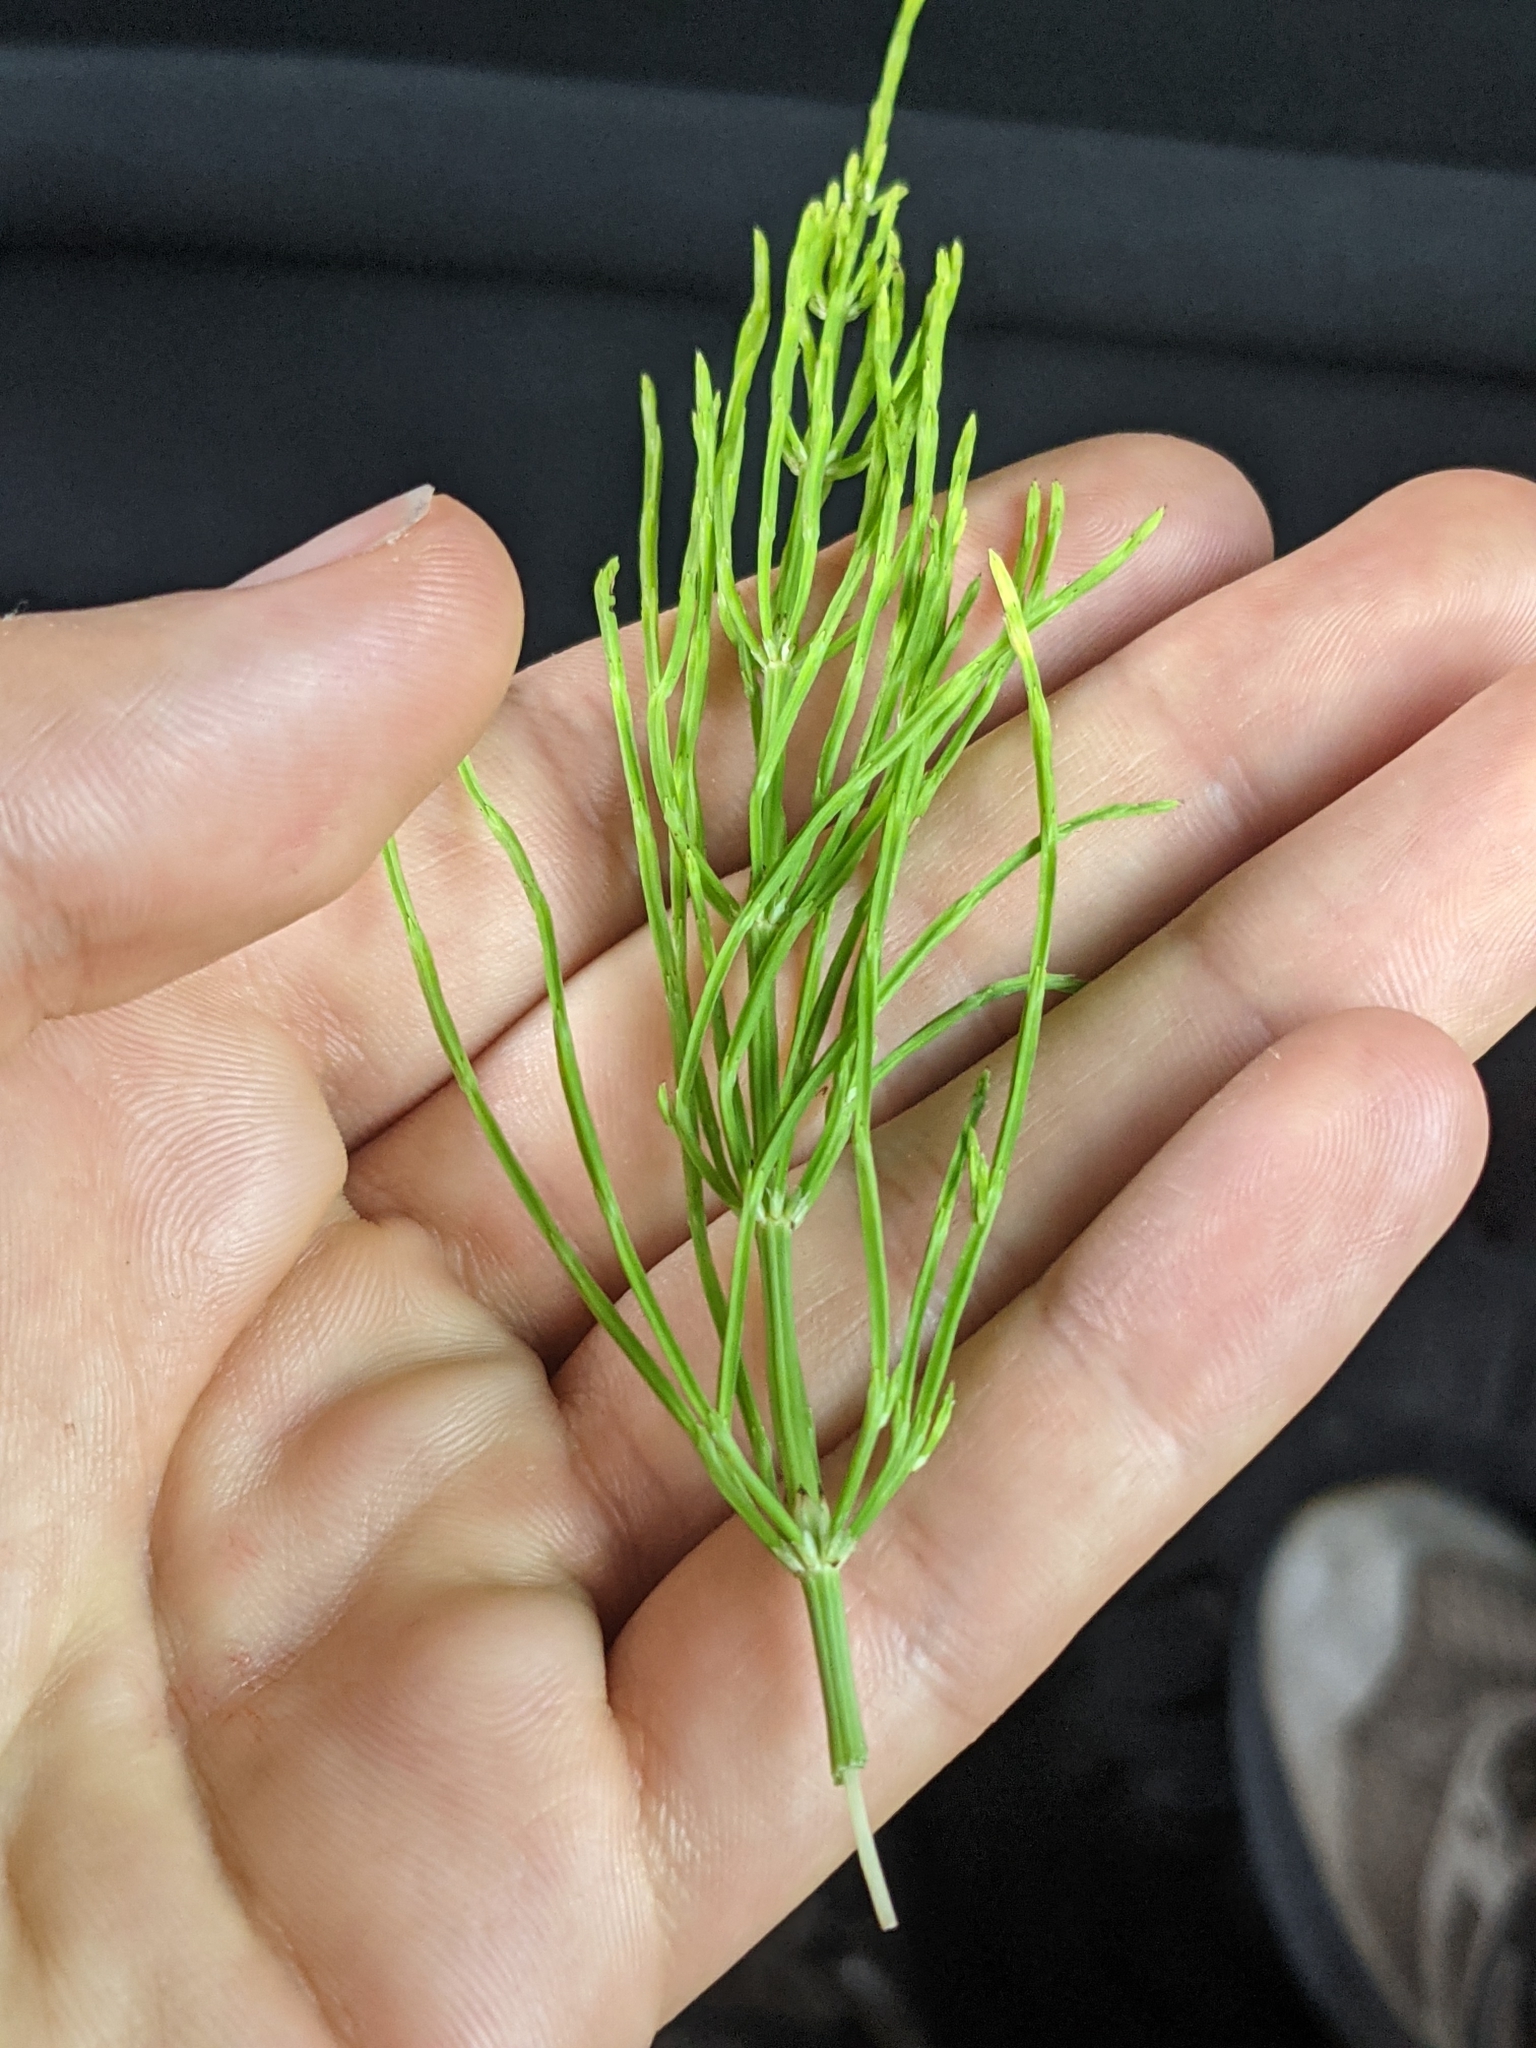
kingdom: Plantae
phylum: Tracheophyta
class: Polypodiopsida
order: Equisetales
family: Equisetaceae
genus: Equisetum
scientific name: Equisetum arvense
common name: Field horsetail
